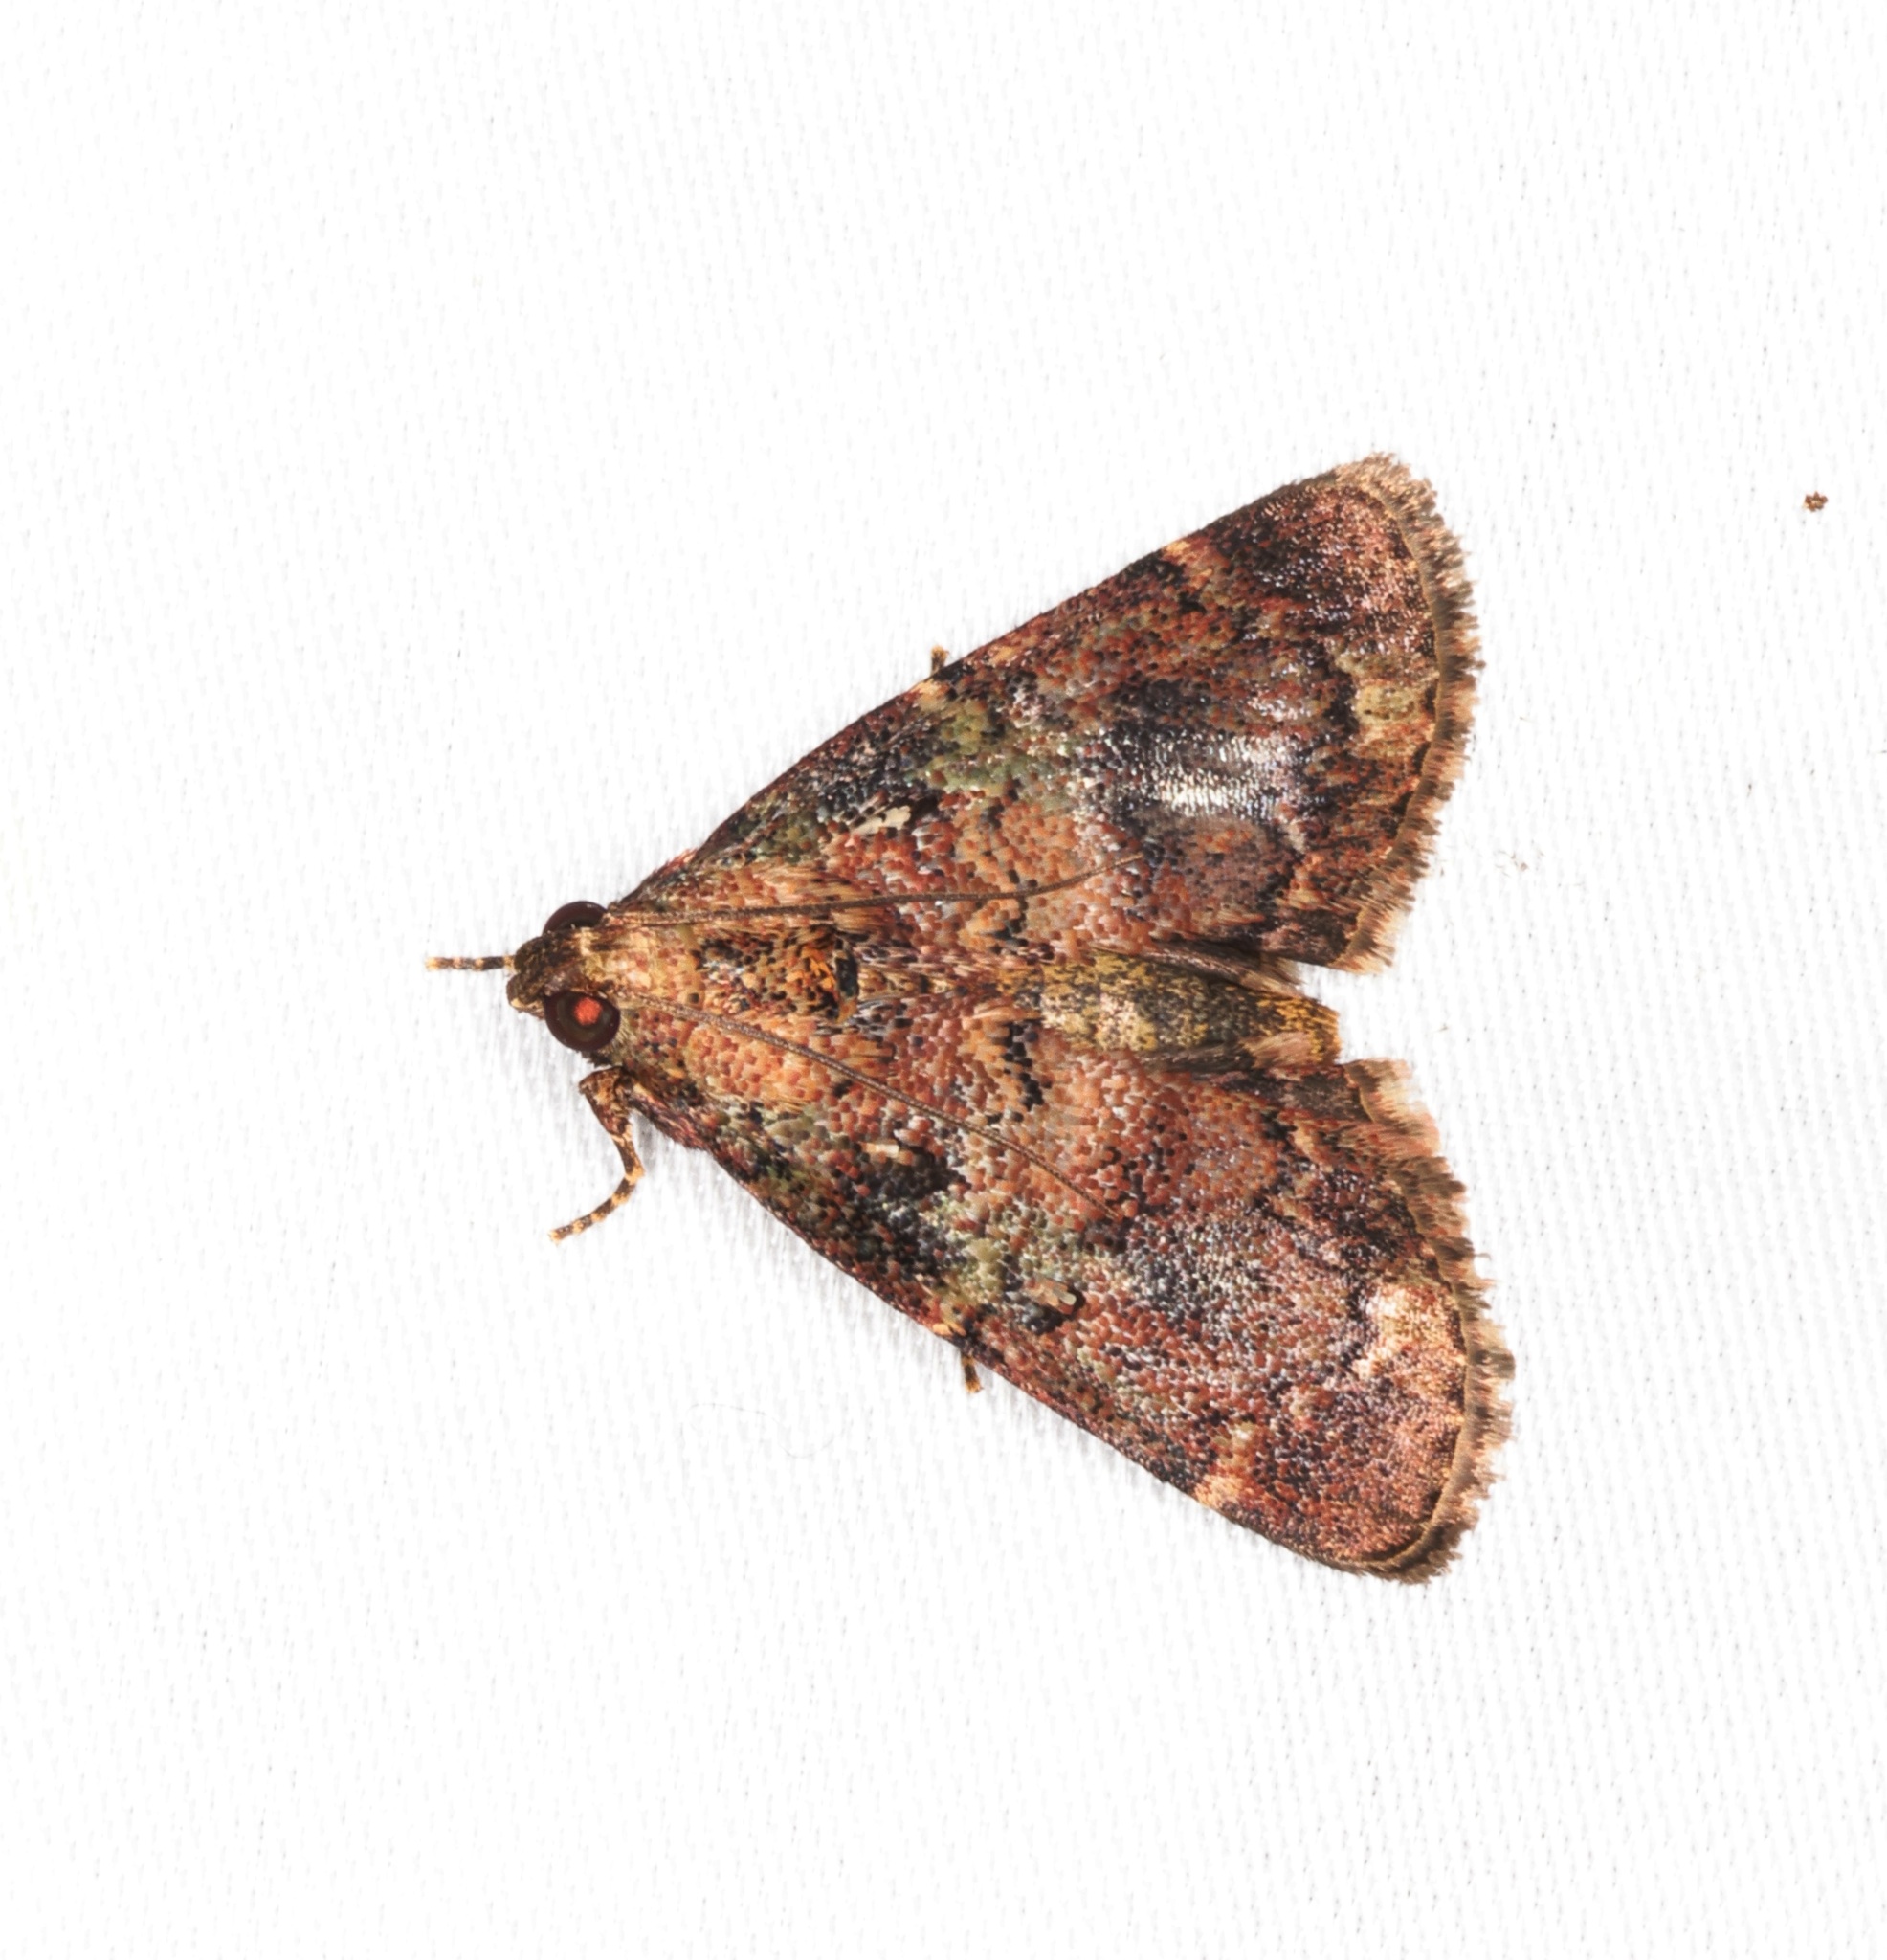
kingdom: Animalia
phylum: Arthropoda
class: Insecta
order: Lepidoptera
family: Pyralidae
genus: Orthaga
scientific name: Orthaga olivacea
